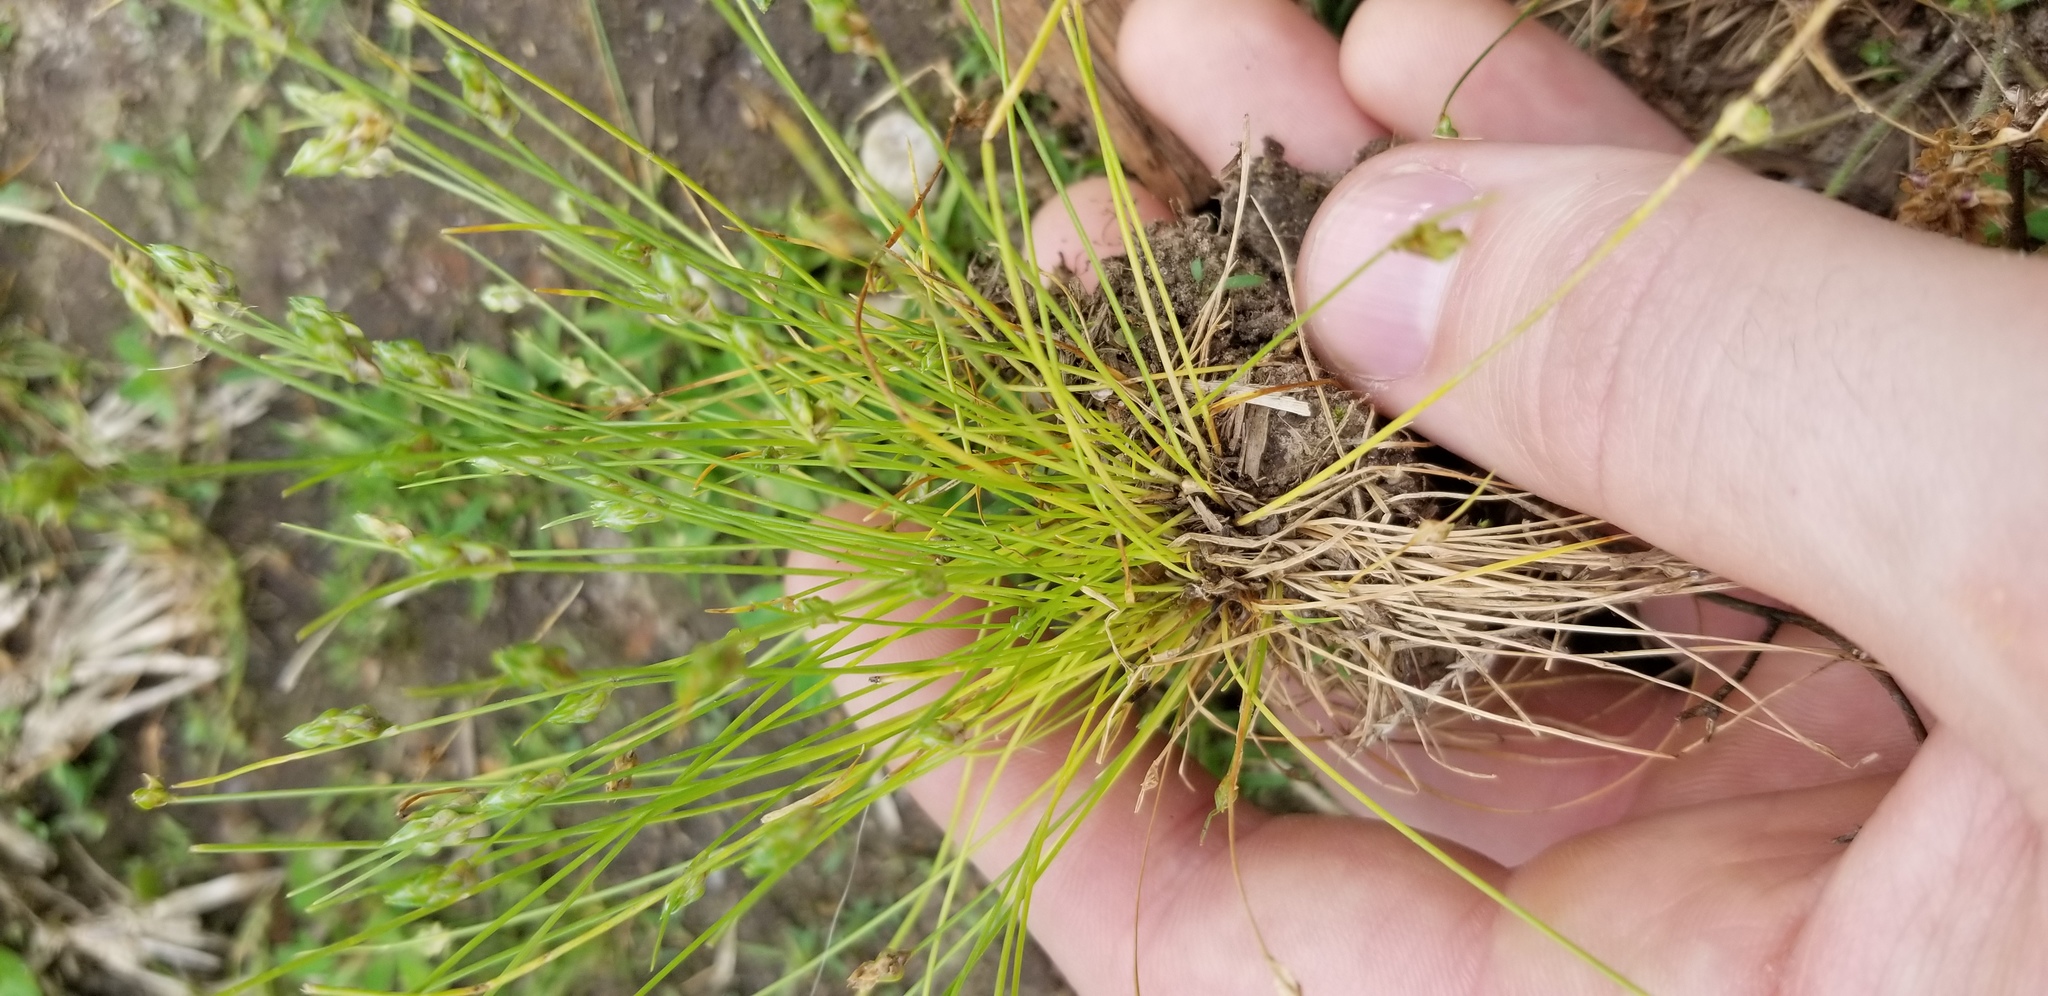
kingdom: Plantae
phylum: Tracheophyta
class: Liliopsida
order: Poales
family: Cyperaceae
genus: Isolepis
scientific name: Isolepis carinata
